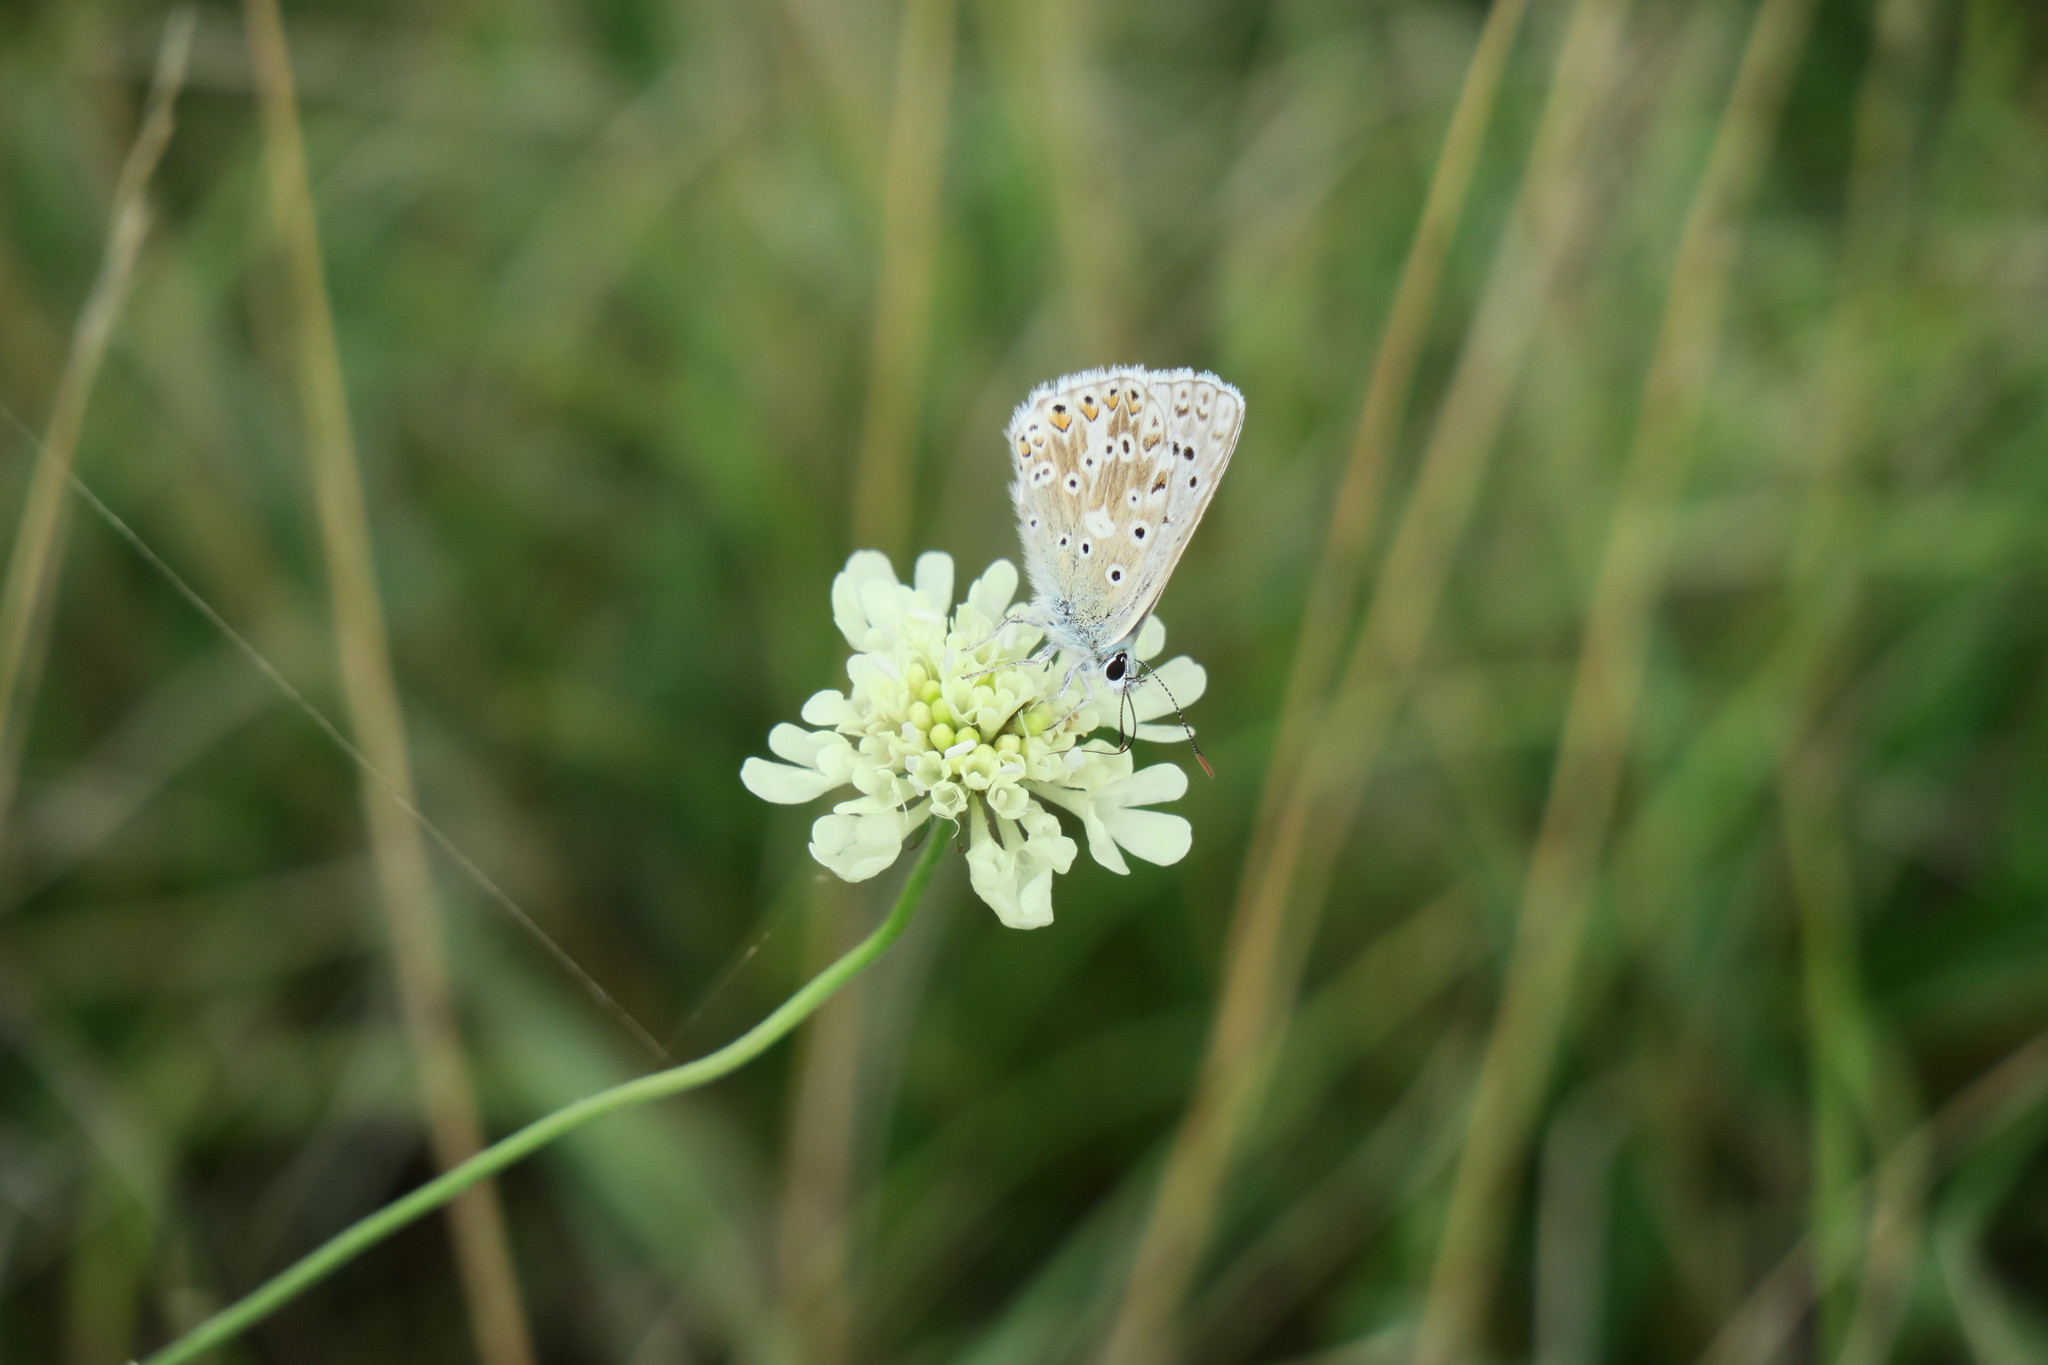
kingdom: Animalia
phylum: Arthropoda
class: Insecta
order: Lepidoptera
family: Lycaenidae
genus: Lysandra
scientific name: Lysandra coridon
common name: Chalkhill blue
